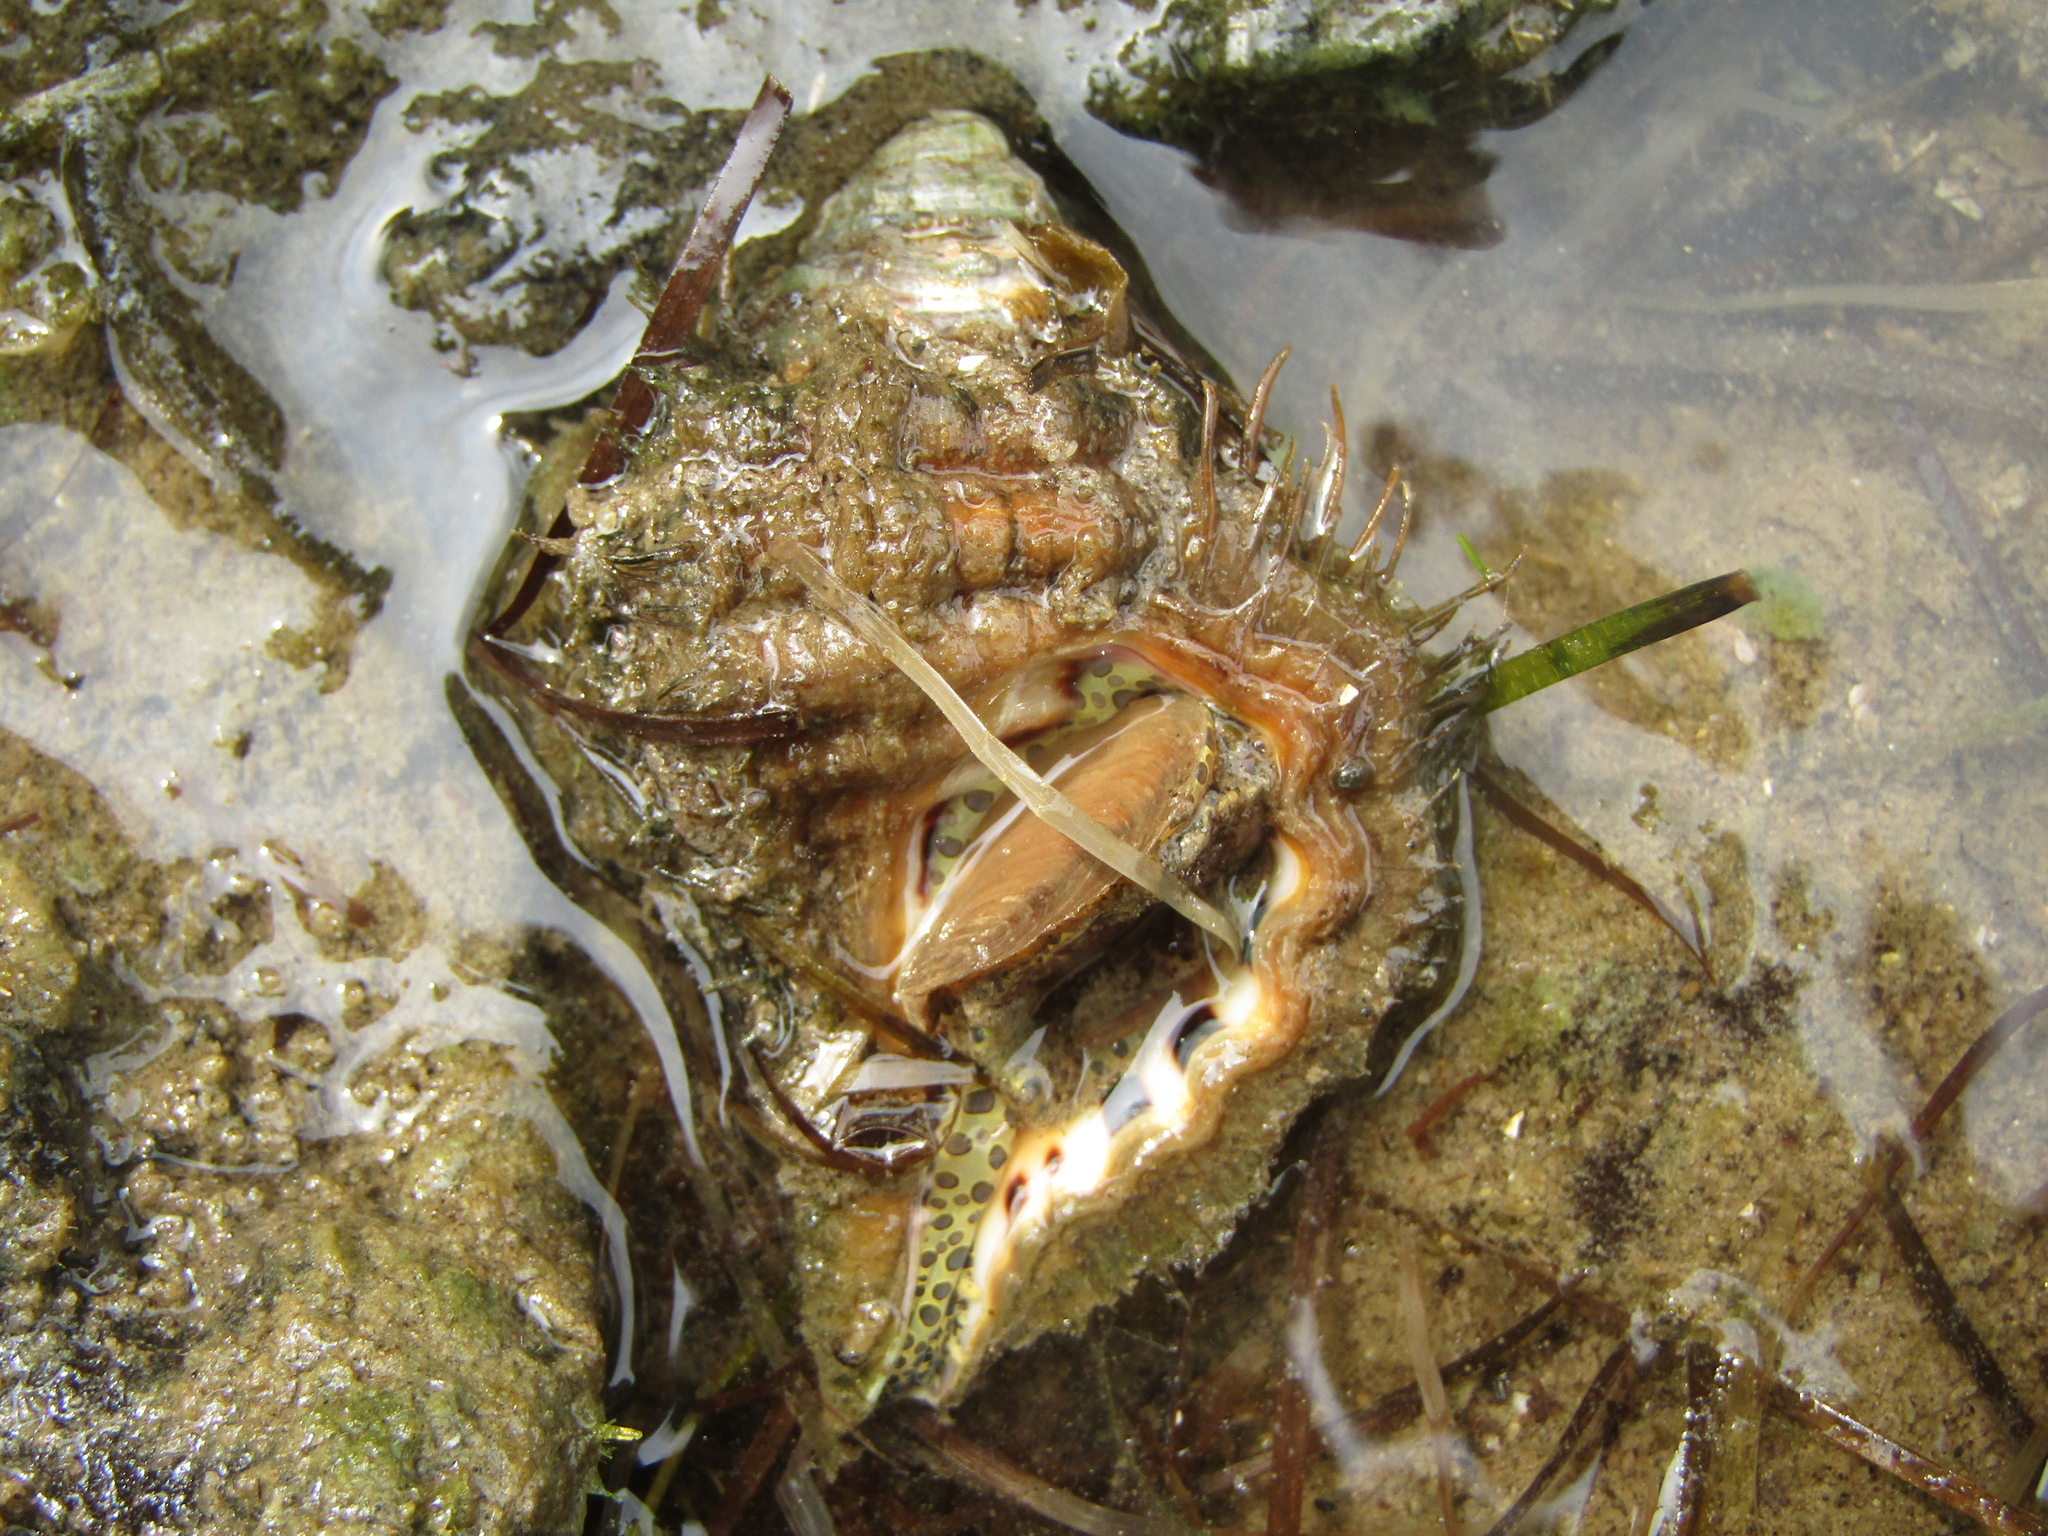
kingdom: Animalia
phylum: Mollusca
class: Gastropoda
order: Littorinimorpha
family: Cymatiidae
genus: Monoplex
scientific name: Monoplex parthenopeus
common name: Giant triton
